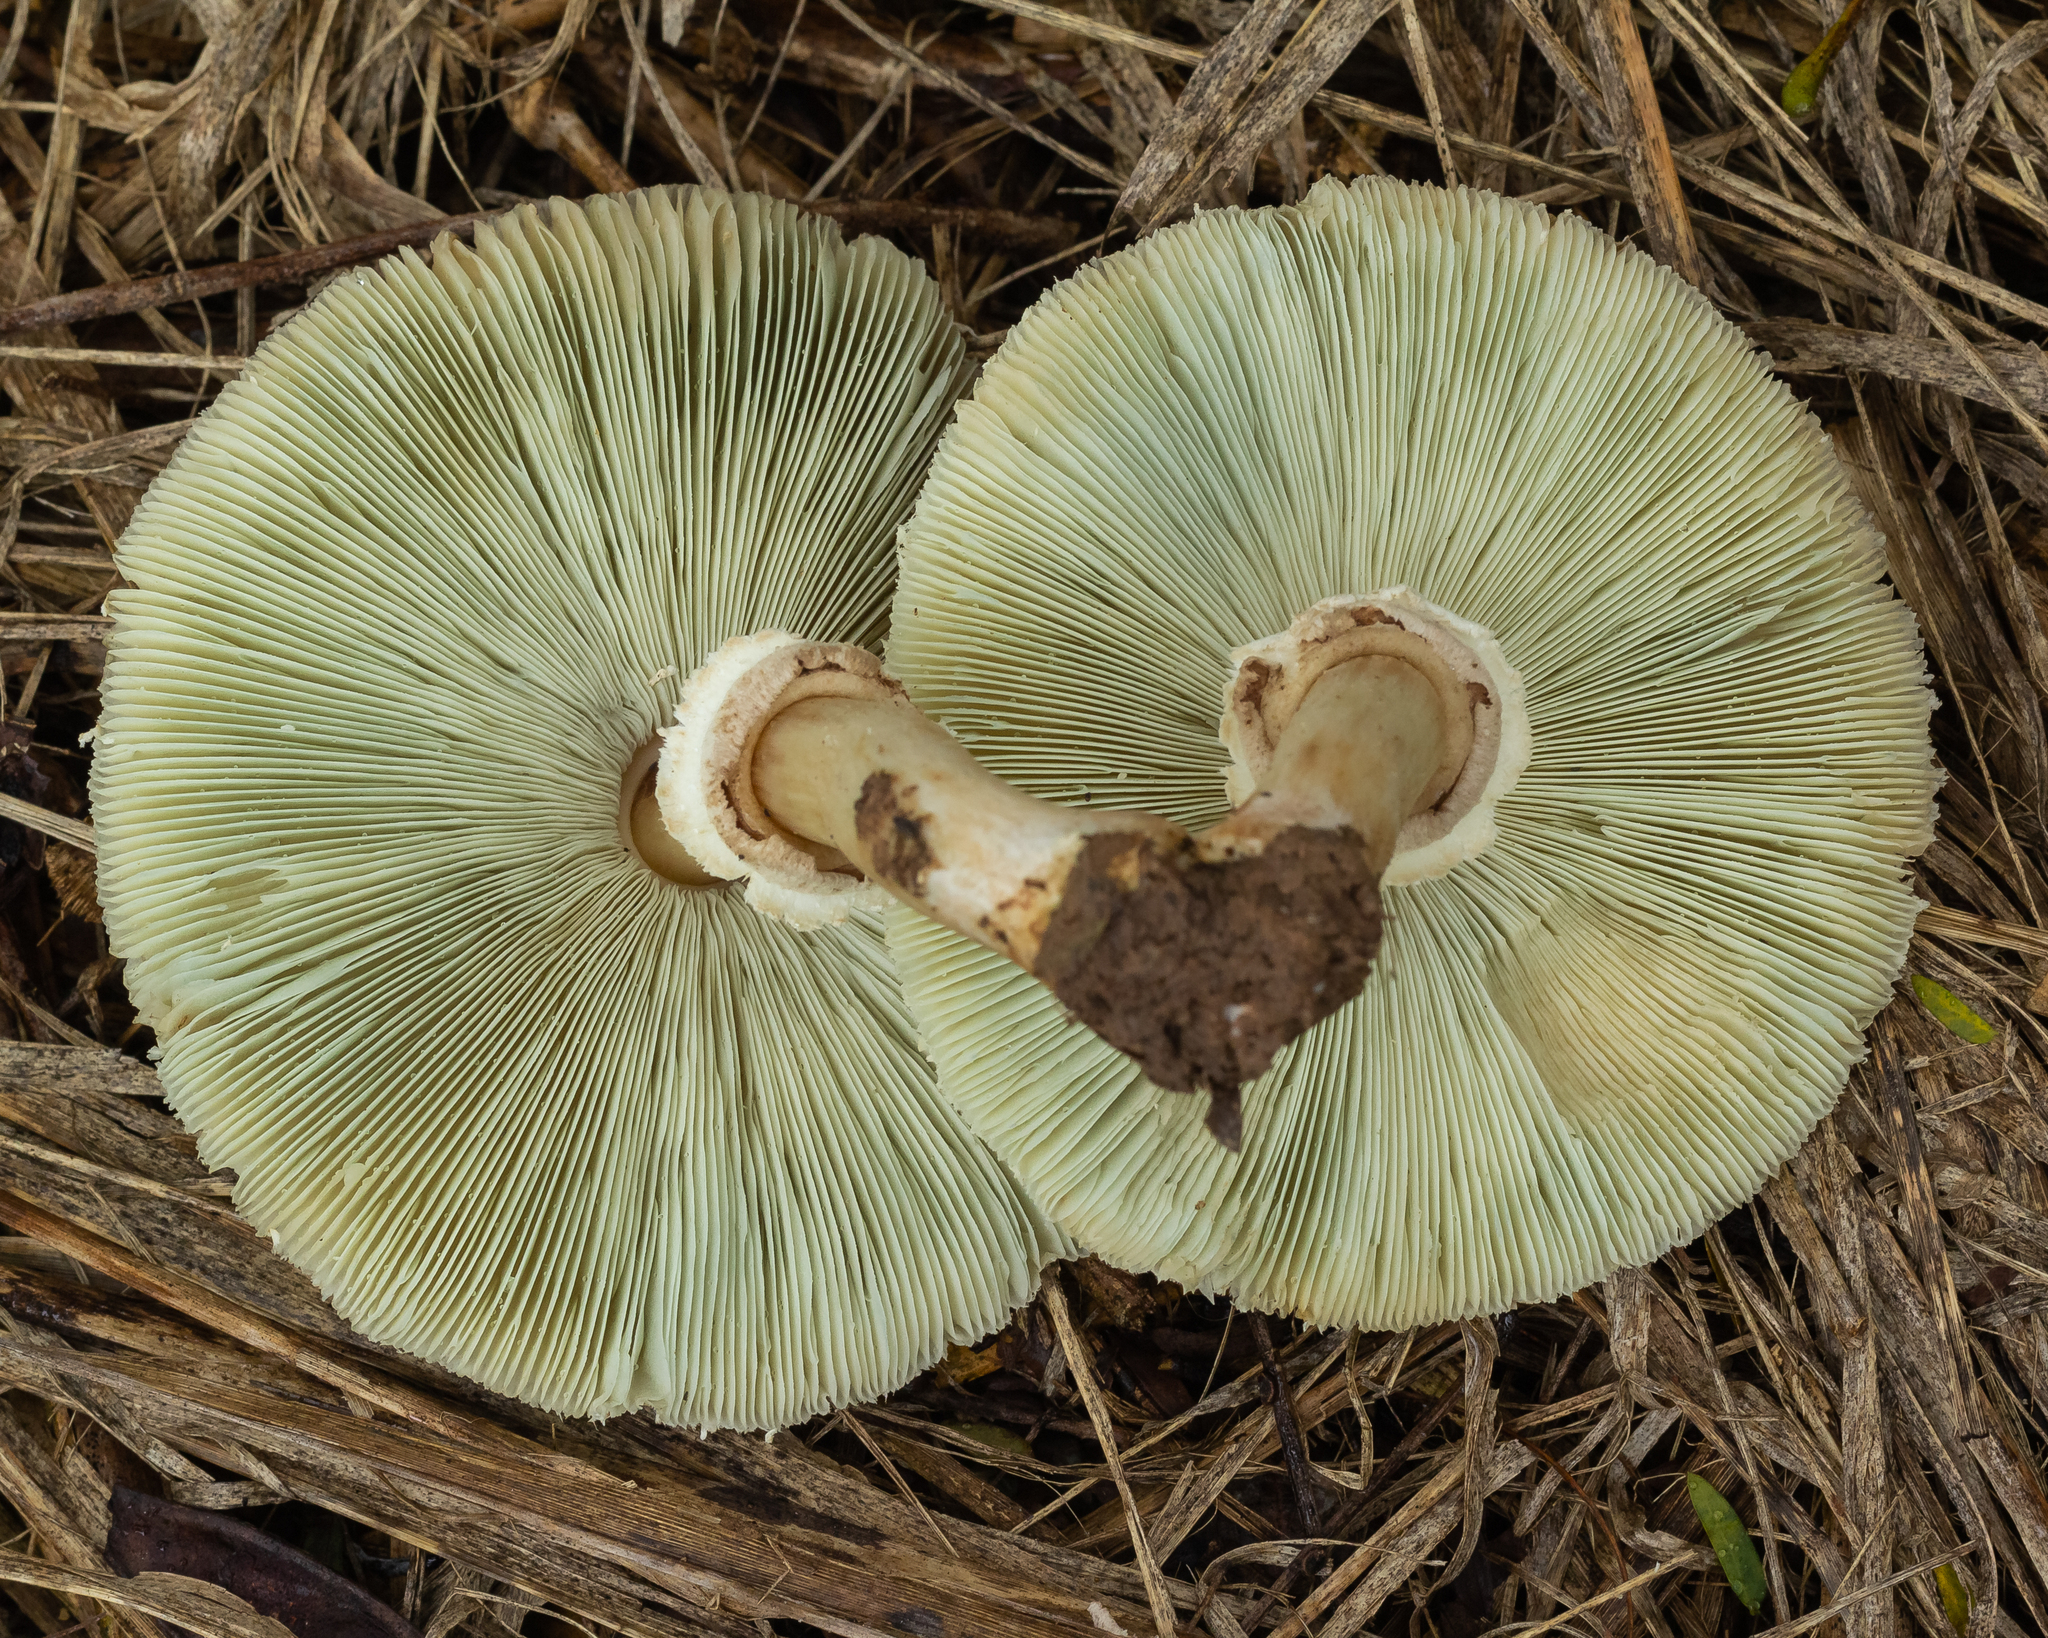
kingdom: Fungi
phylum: Basidiomycota
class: Agaricomycetes
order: Agaricales
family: Agaricaceae
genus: Chlorophyllum
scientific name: Chlorophyllum molybdites
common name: False parasol
